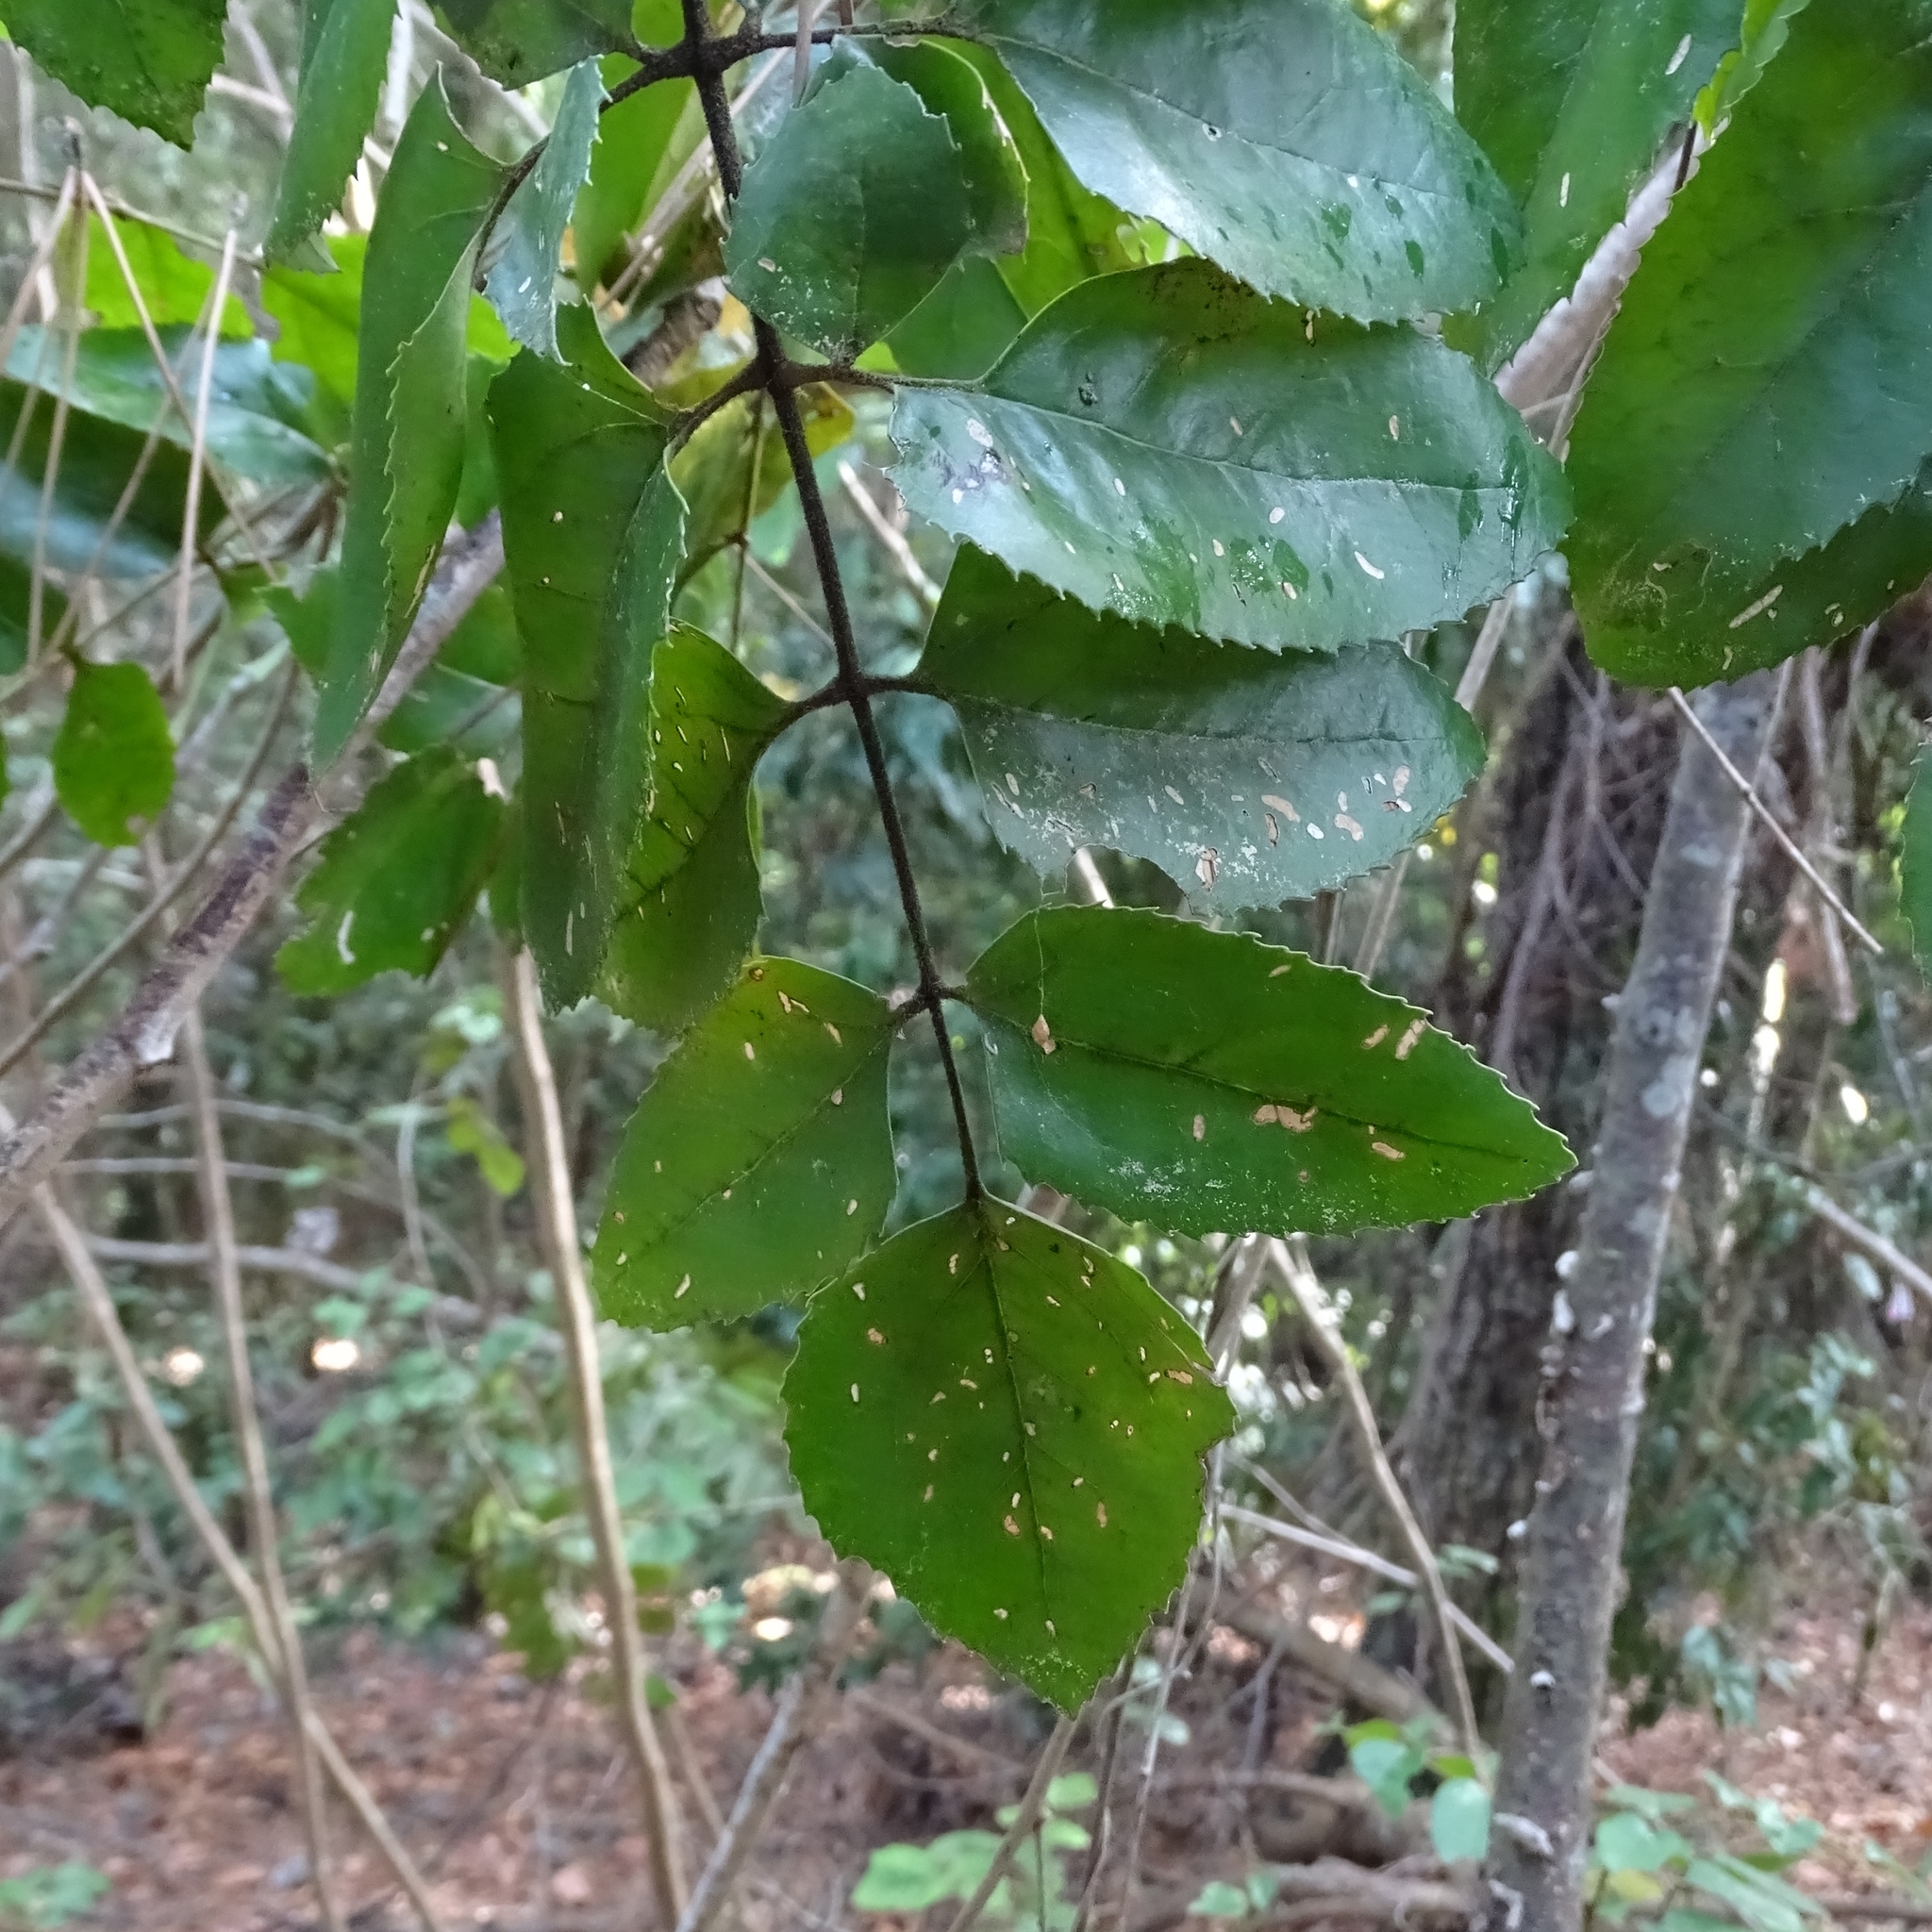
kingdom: Plantae
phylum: Tracheophyta
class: Magnoliopsida
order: Proteales
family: Proteaceae
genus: Gevuina
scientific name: Gevuina avellana
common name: Chilean hazel
